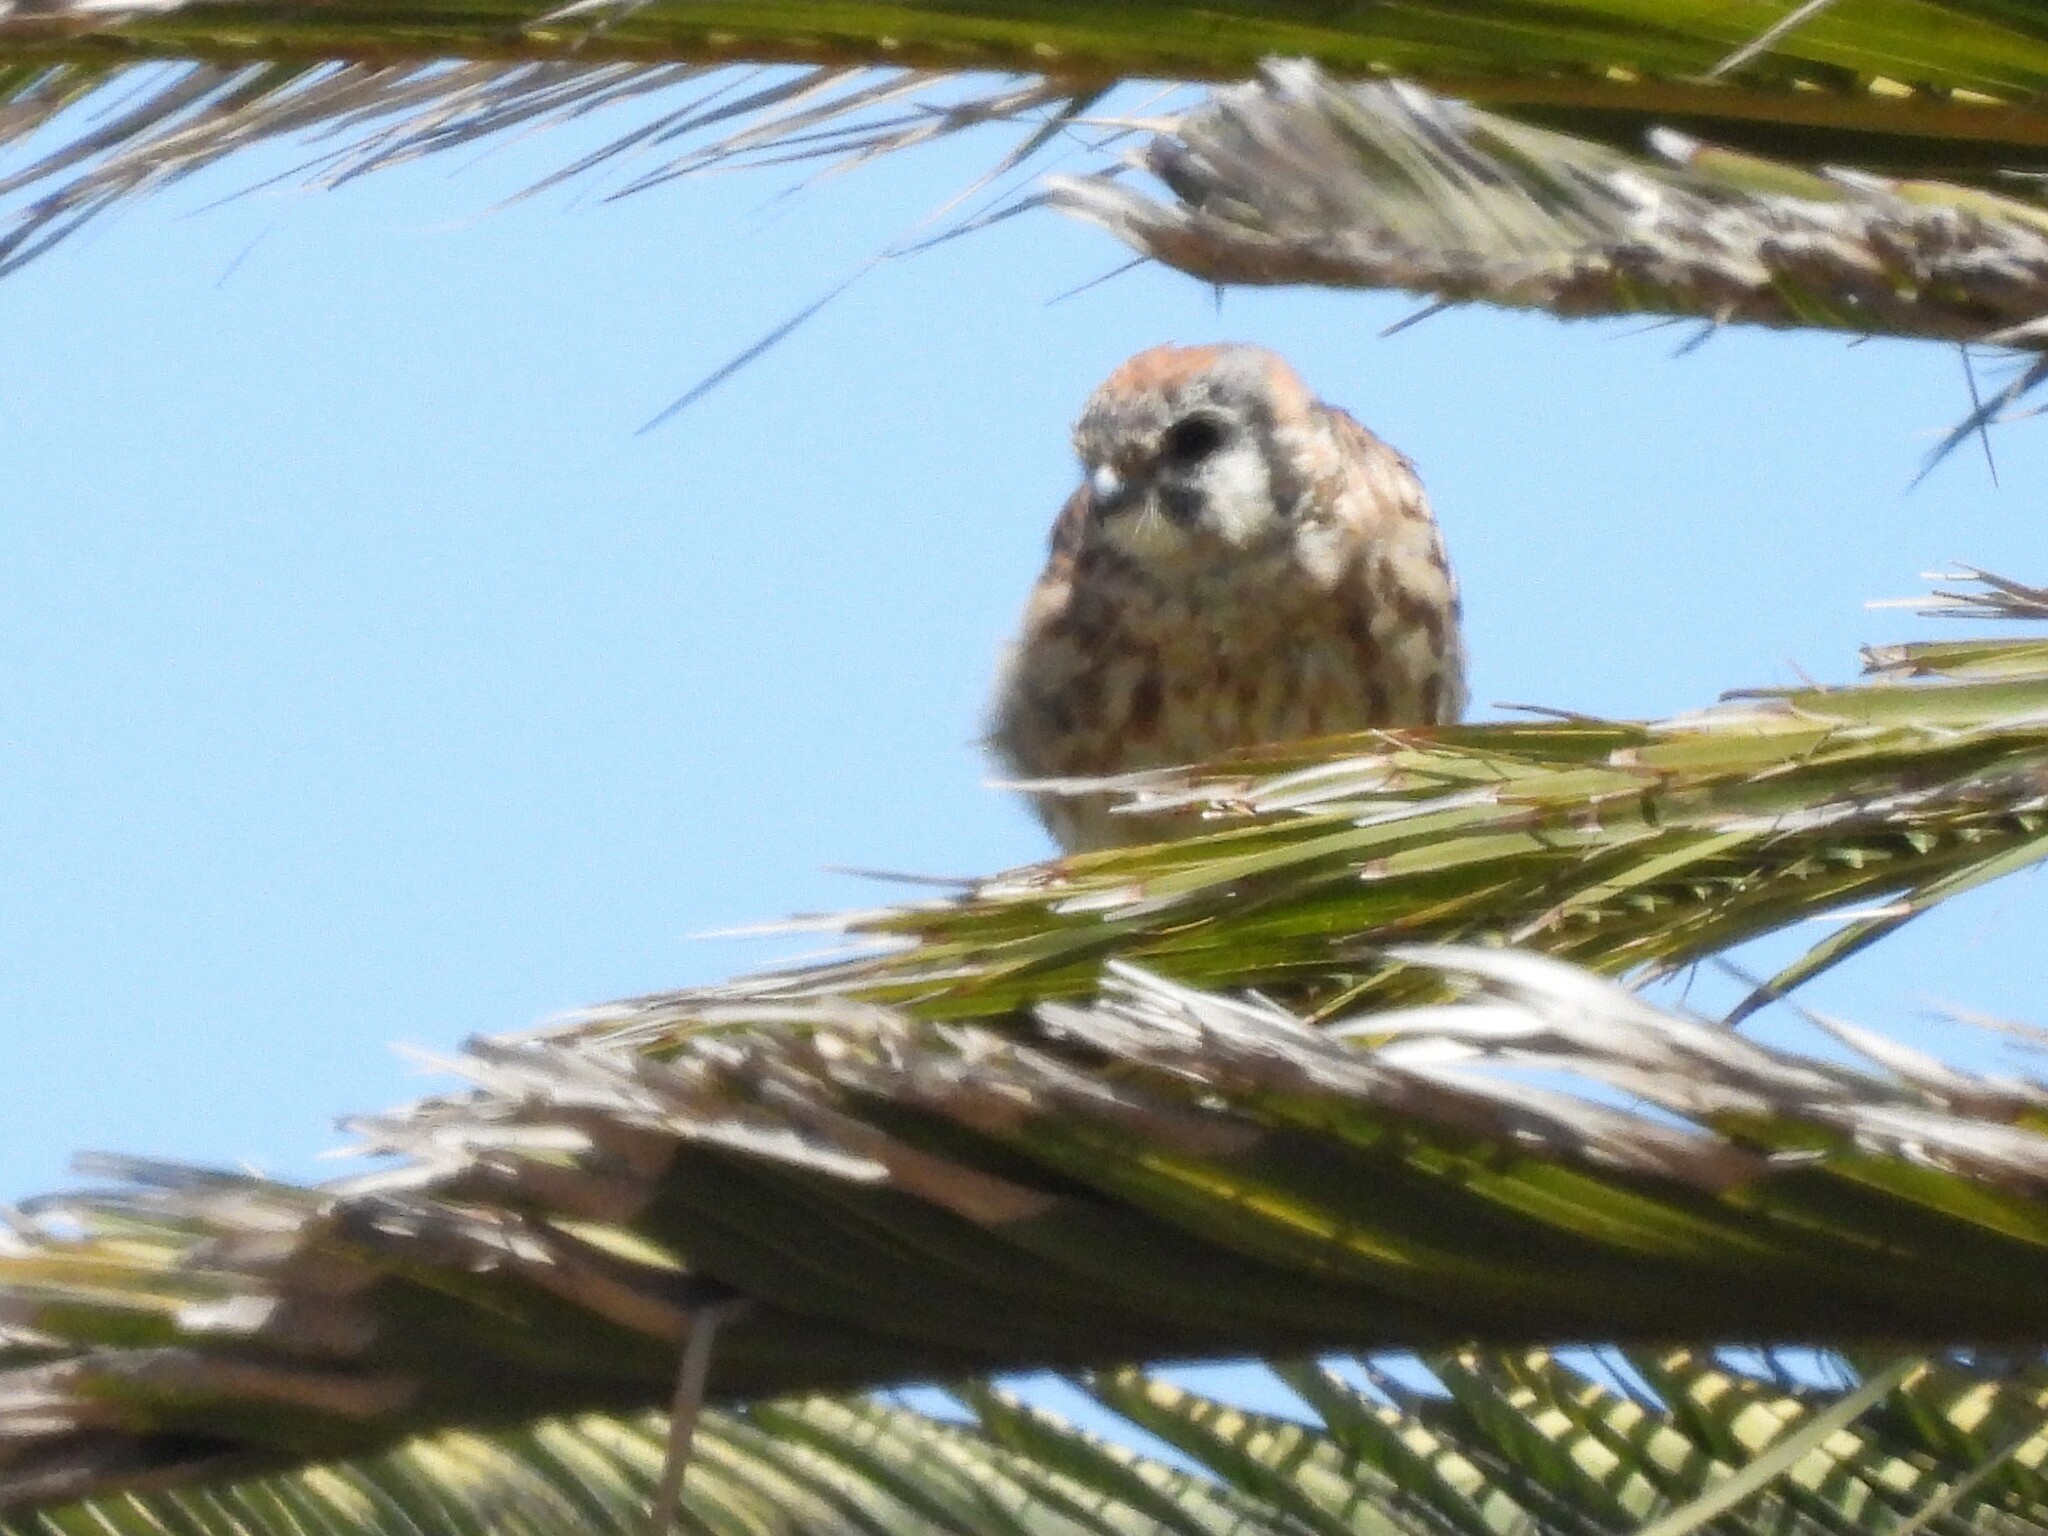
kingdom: Animalia
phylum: Chordata
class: Aves
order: Falconiformes
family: Falconidae
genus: Falco
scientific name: Falco sparverius
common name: American kestrel
